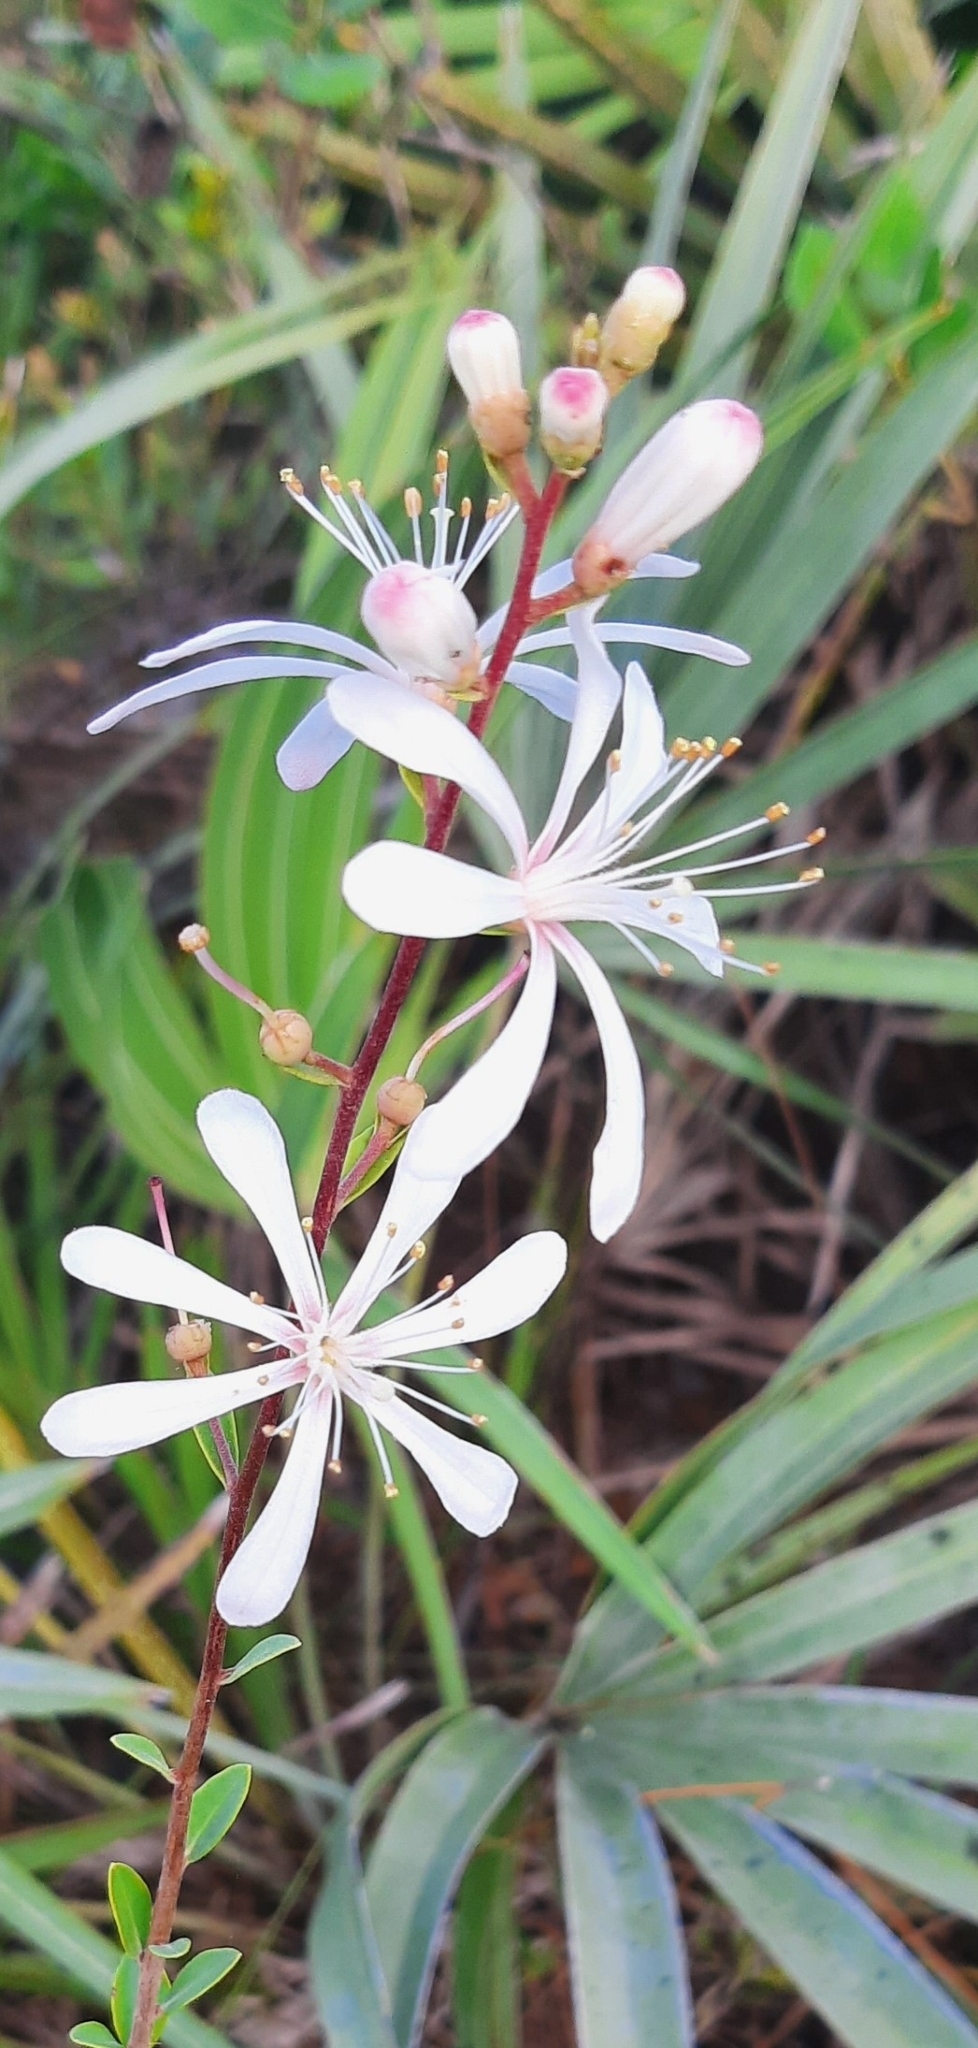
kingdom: Plantae
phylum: Tracheophyta
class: Magnoliopsida
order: Ericales
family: Ericaceae
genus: Bejaria
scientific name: Bejaria racemosa
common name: Tarflower
